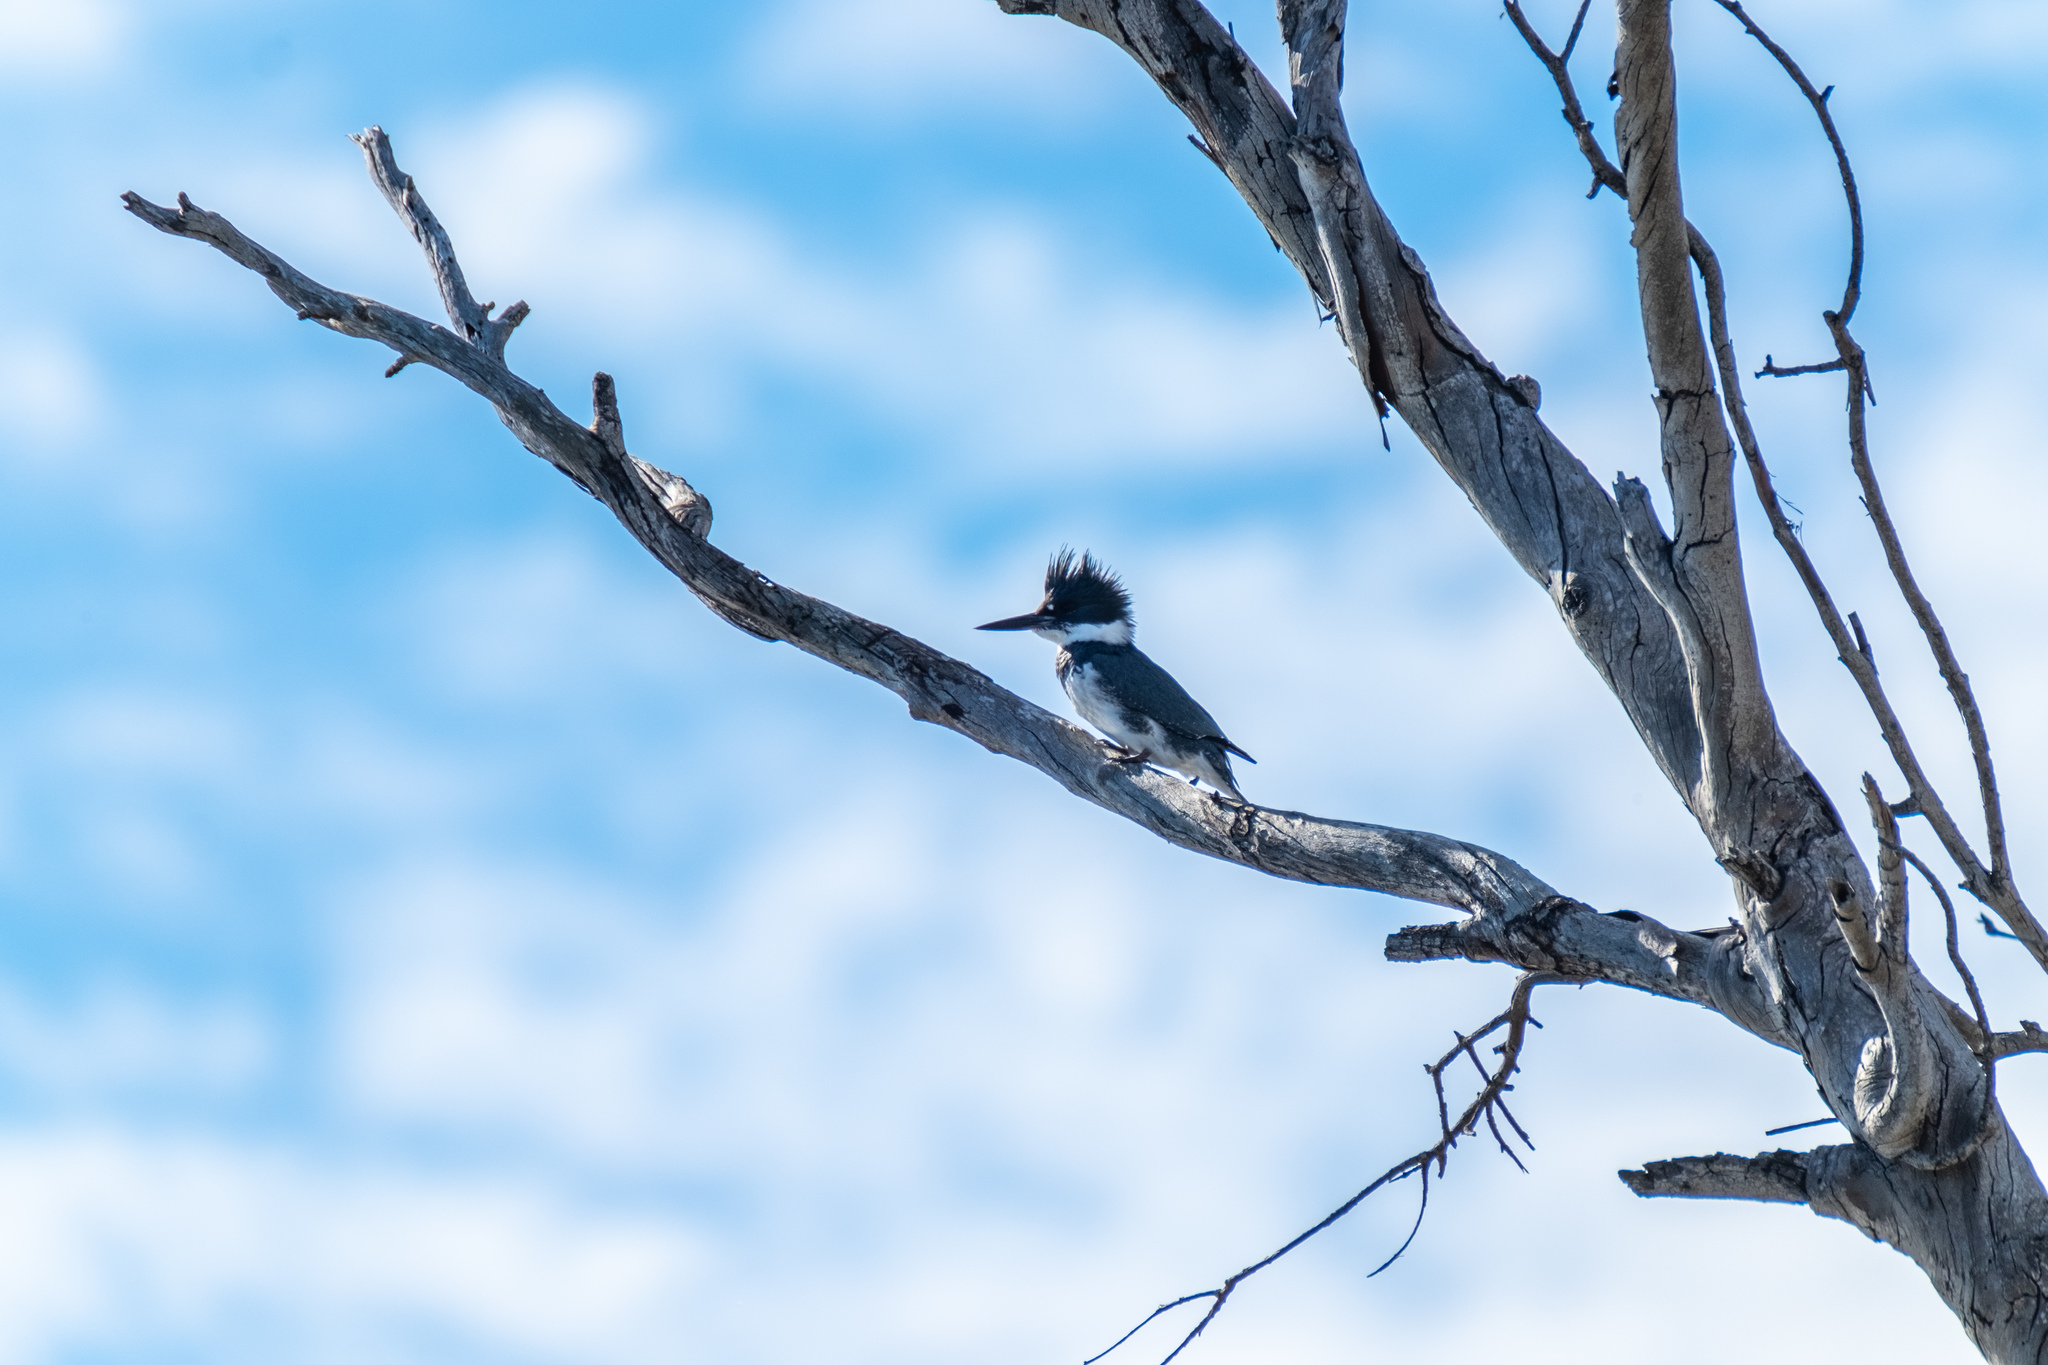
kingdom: Animalia
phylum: Chordata
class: Aves
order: Coraciiformes
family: Alcedinidae
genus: Megaceryle
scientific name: Megaceryle alcyon
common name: Belted kingfisher
